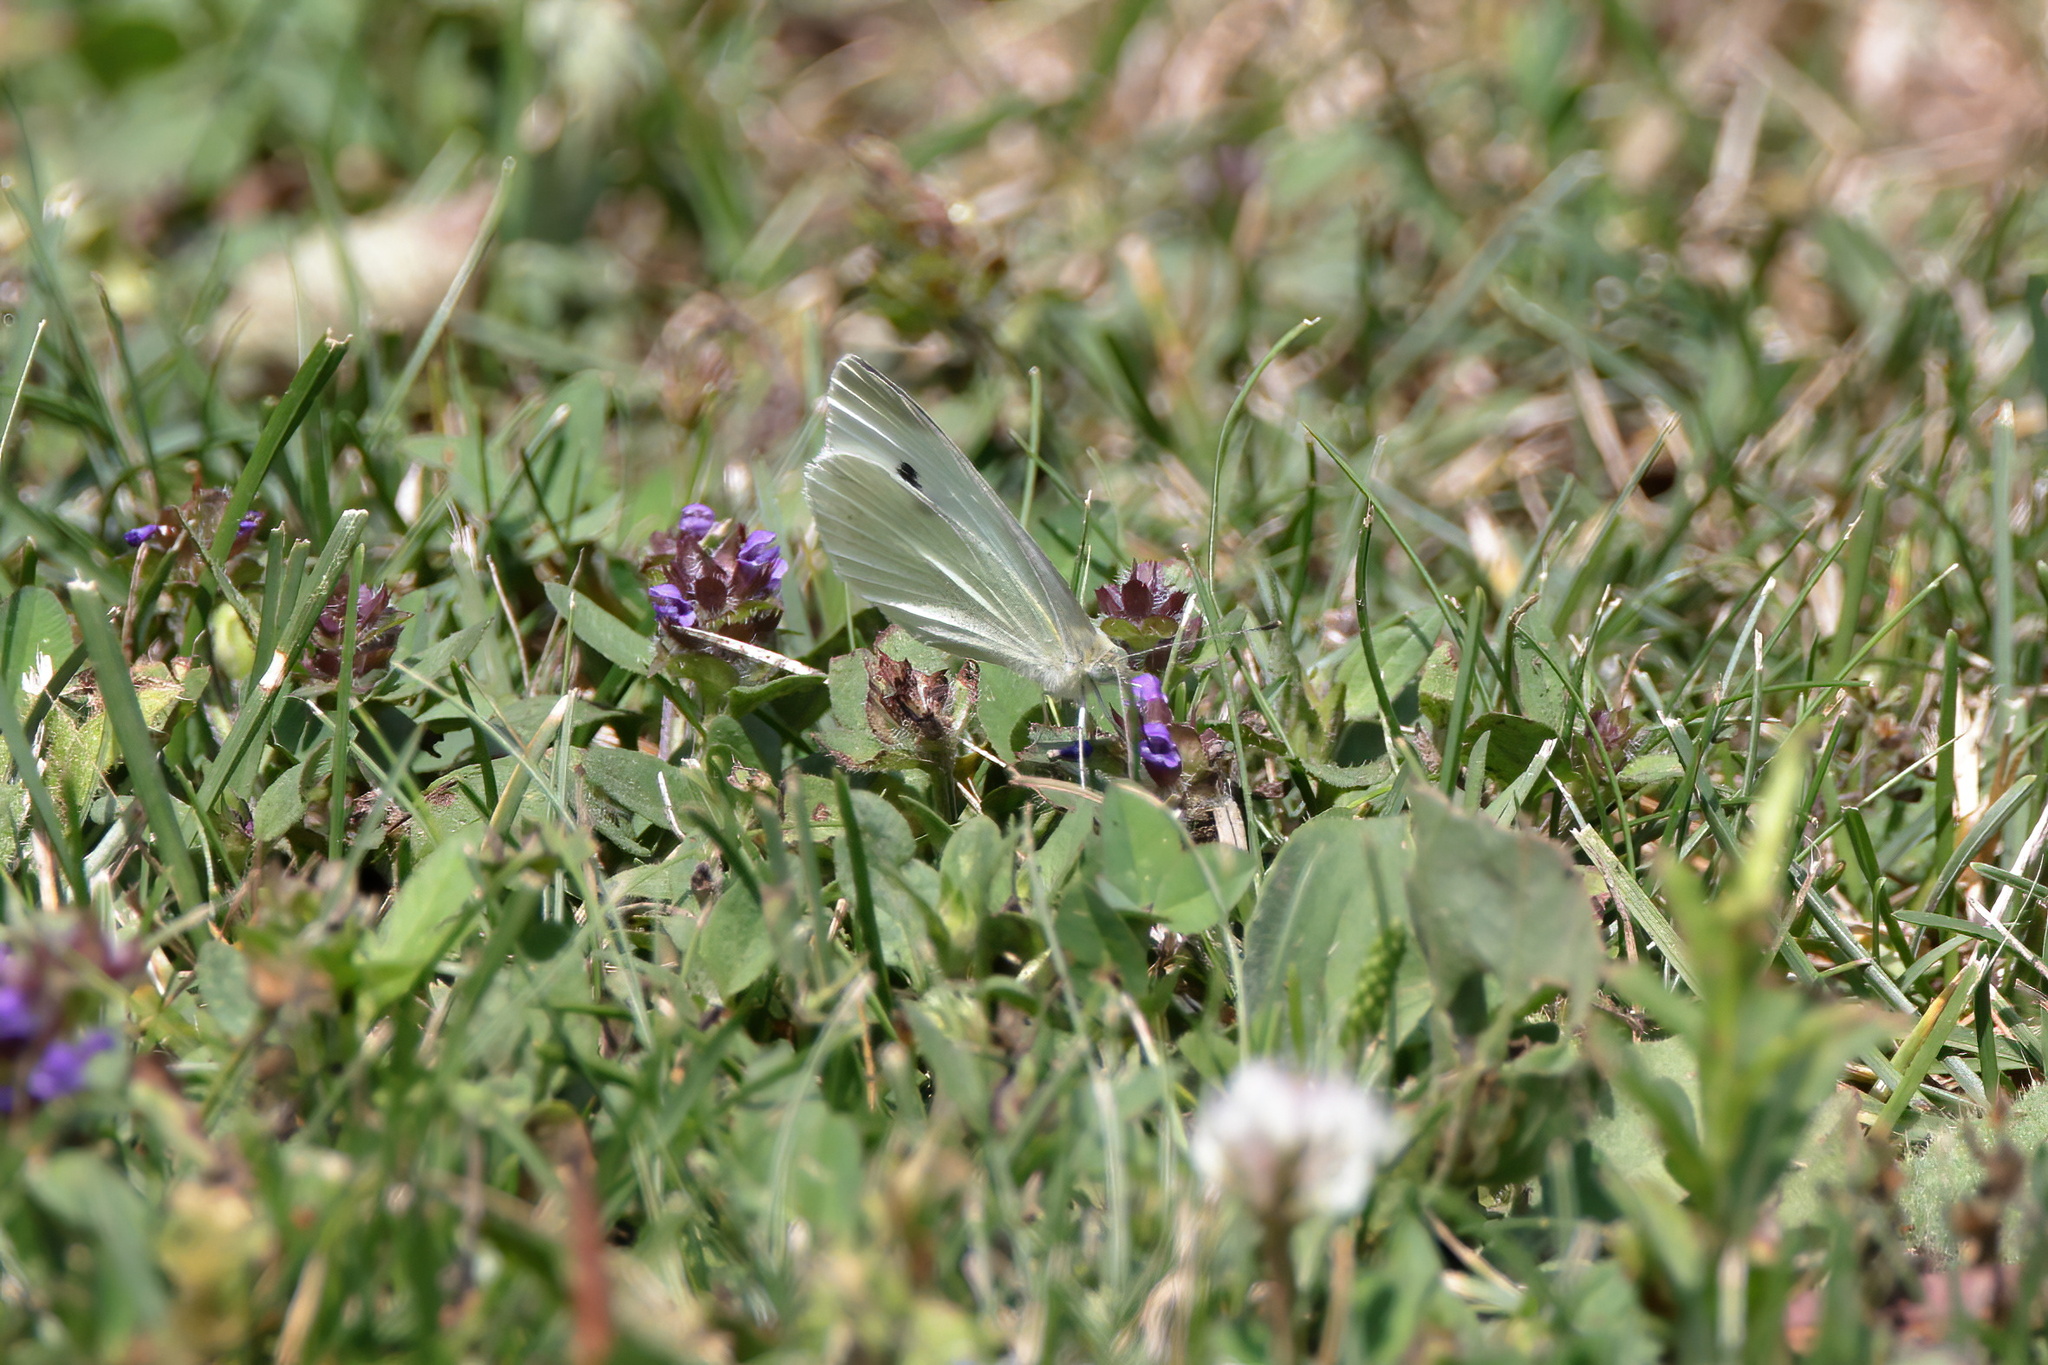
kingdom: Animalia
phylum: Arthropoda
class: Insecta
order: Lepidoptera
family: Pieridae
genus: Pieris
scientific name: Pieris rapae
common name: Small white
